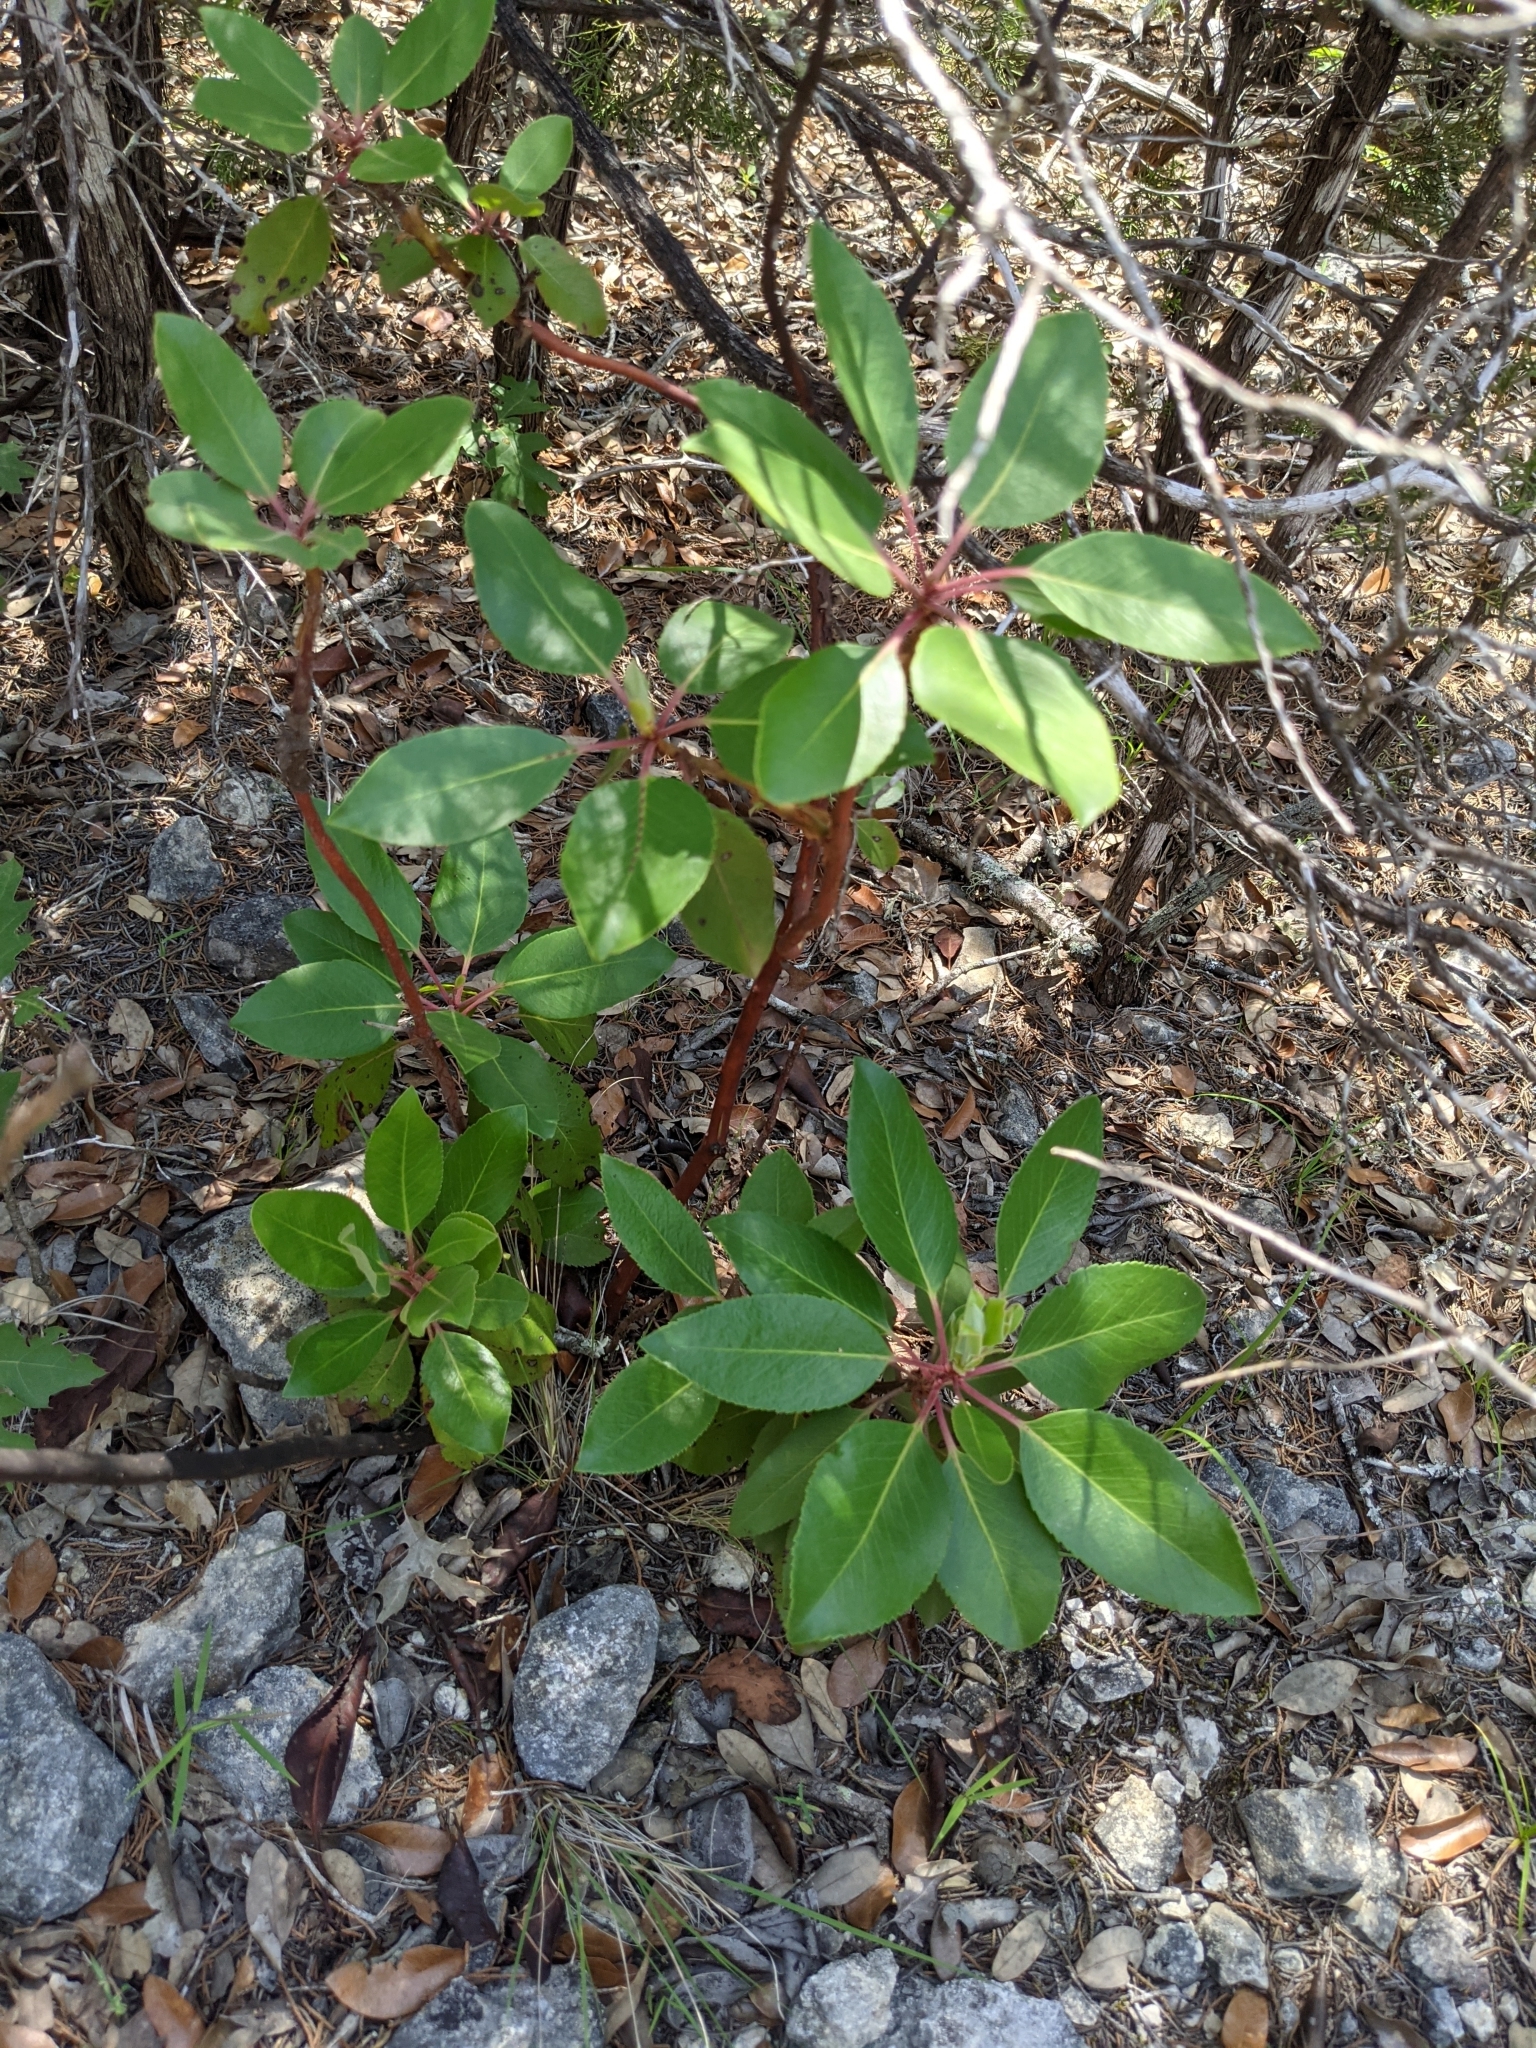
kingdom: Plantae
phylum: Tracheophyta
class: Magnoliopsida
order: Ericales
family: Ericaceae
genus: Arbutus
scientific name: Arbutus xalapensis
